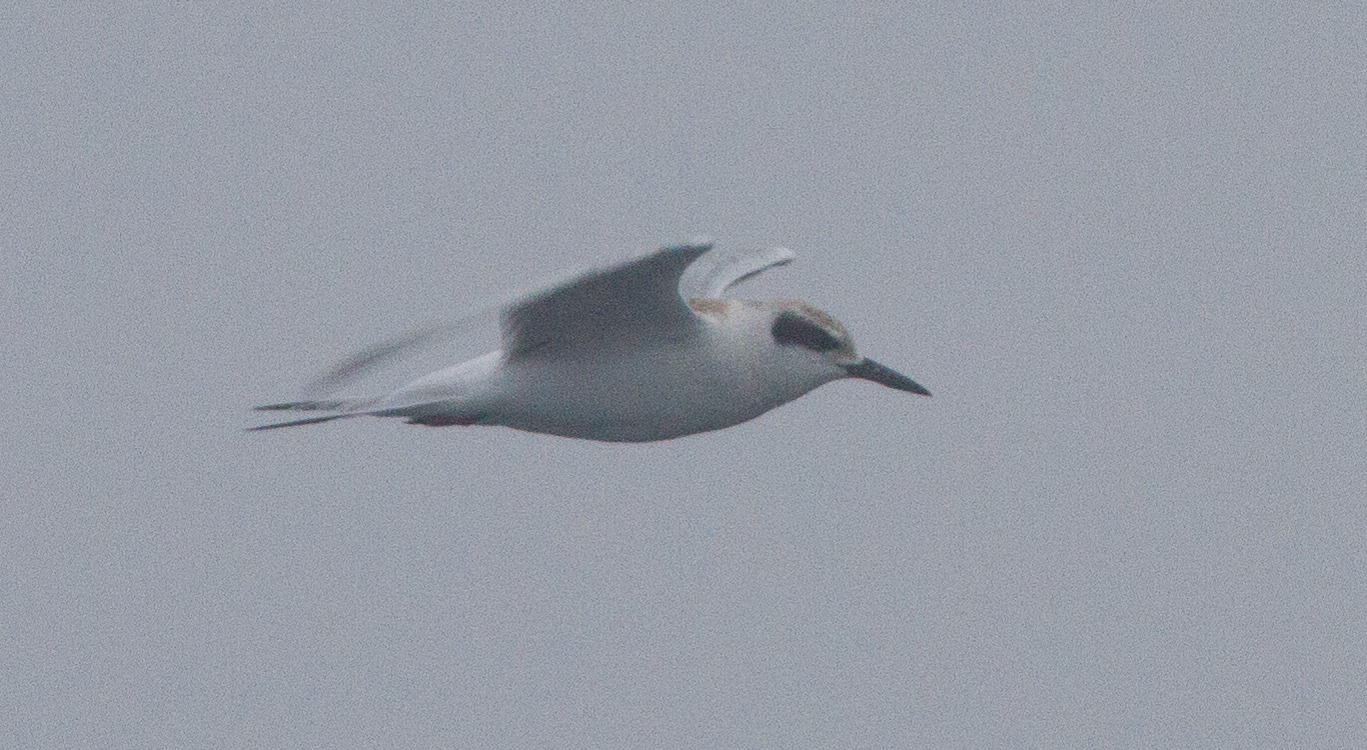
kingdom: Animalia
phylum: Chordata
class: Aves
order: Charadriiformes
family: Laridae
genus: Sterna
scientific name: Sterna forsteri
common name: Forster's tern
